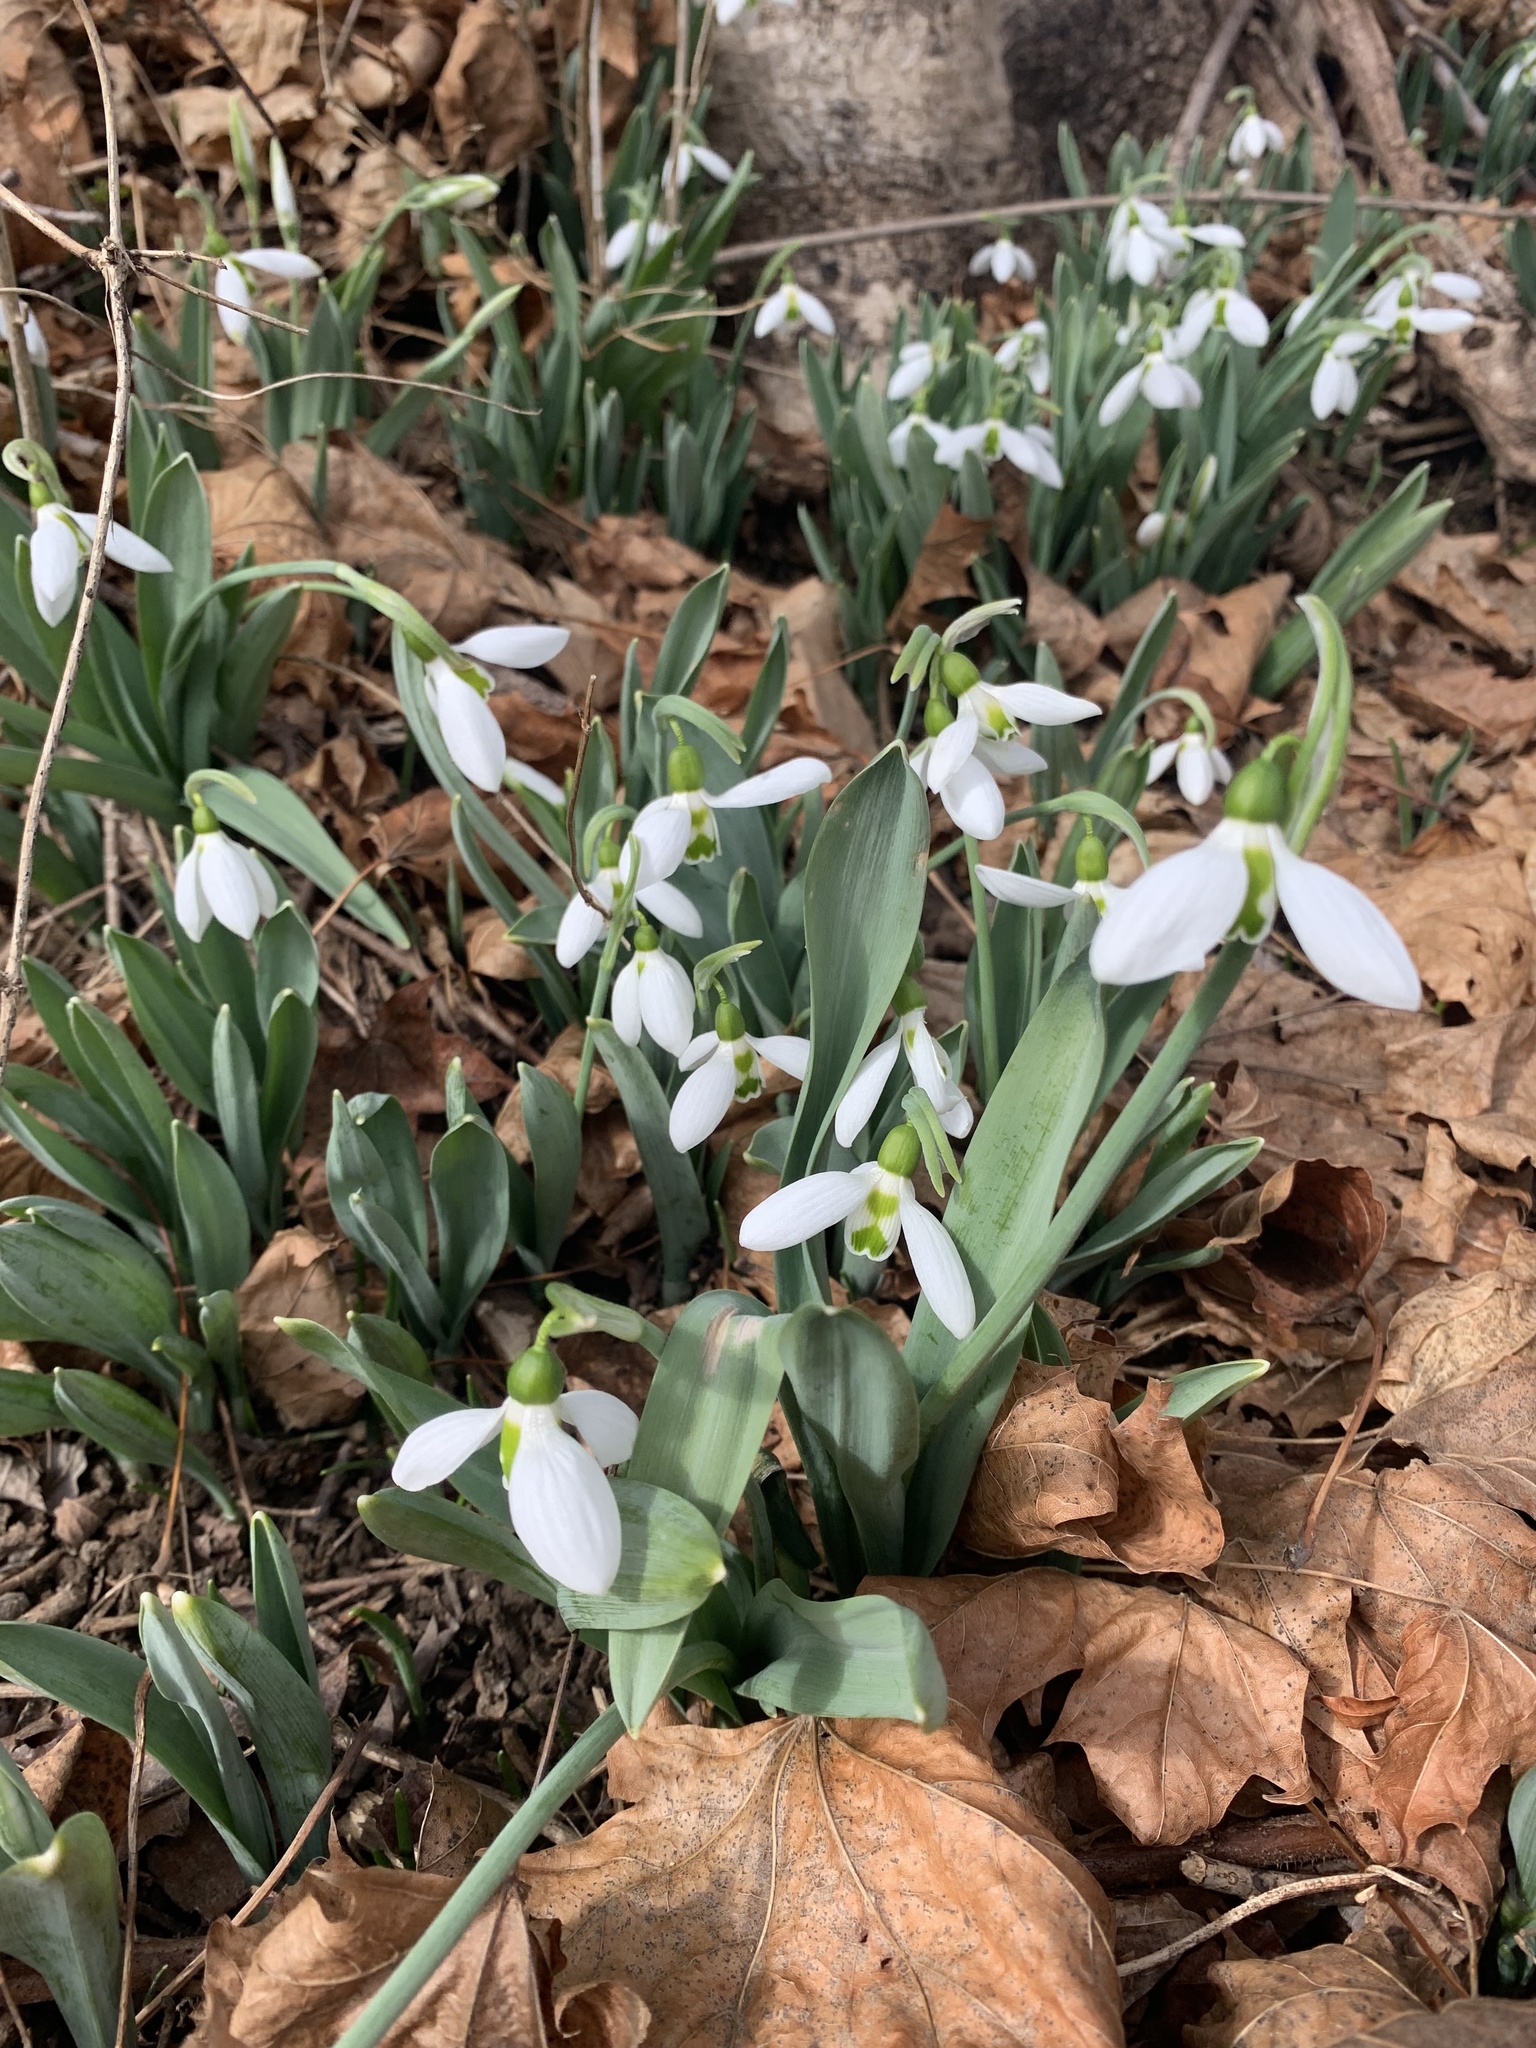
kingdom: Plantae
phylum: Tracheophyta
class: Liliopsida
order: Asparagales
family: Amaryllidaceae
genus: Galanthus
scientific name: Galanthus elwesii
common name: Greater snowdrop
